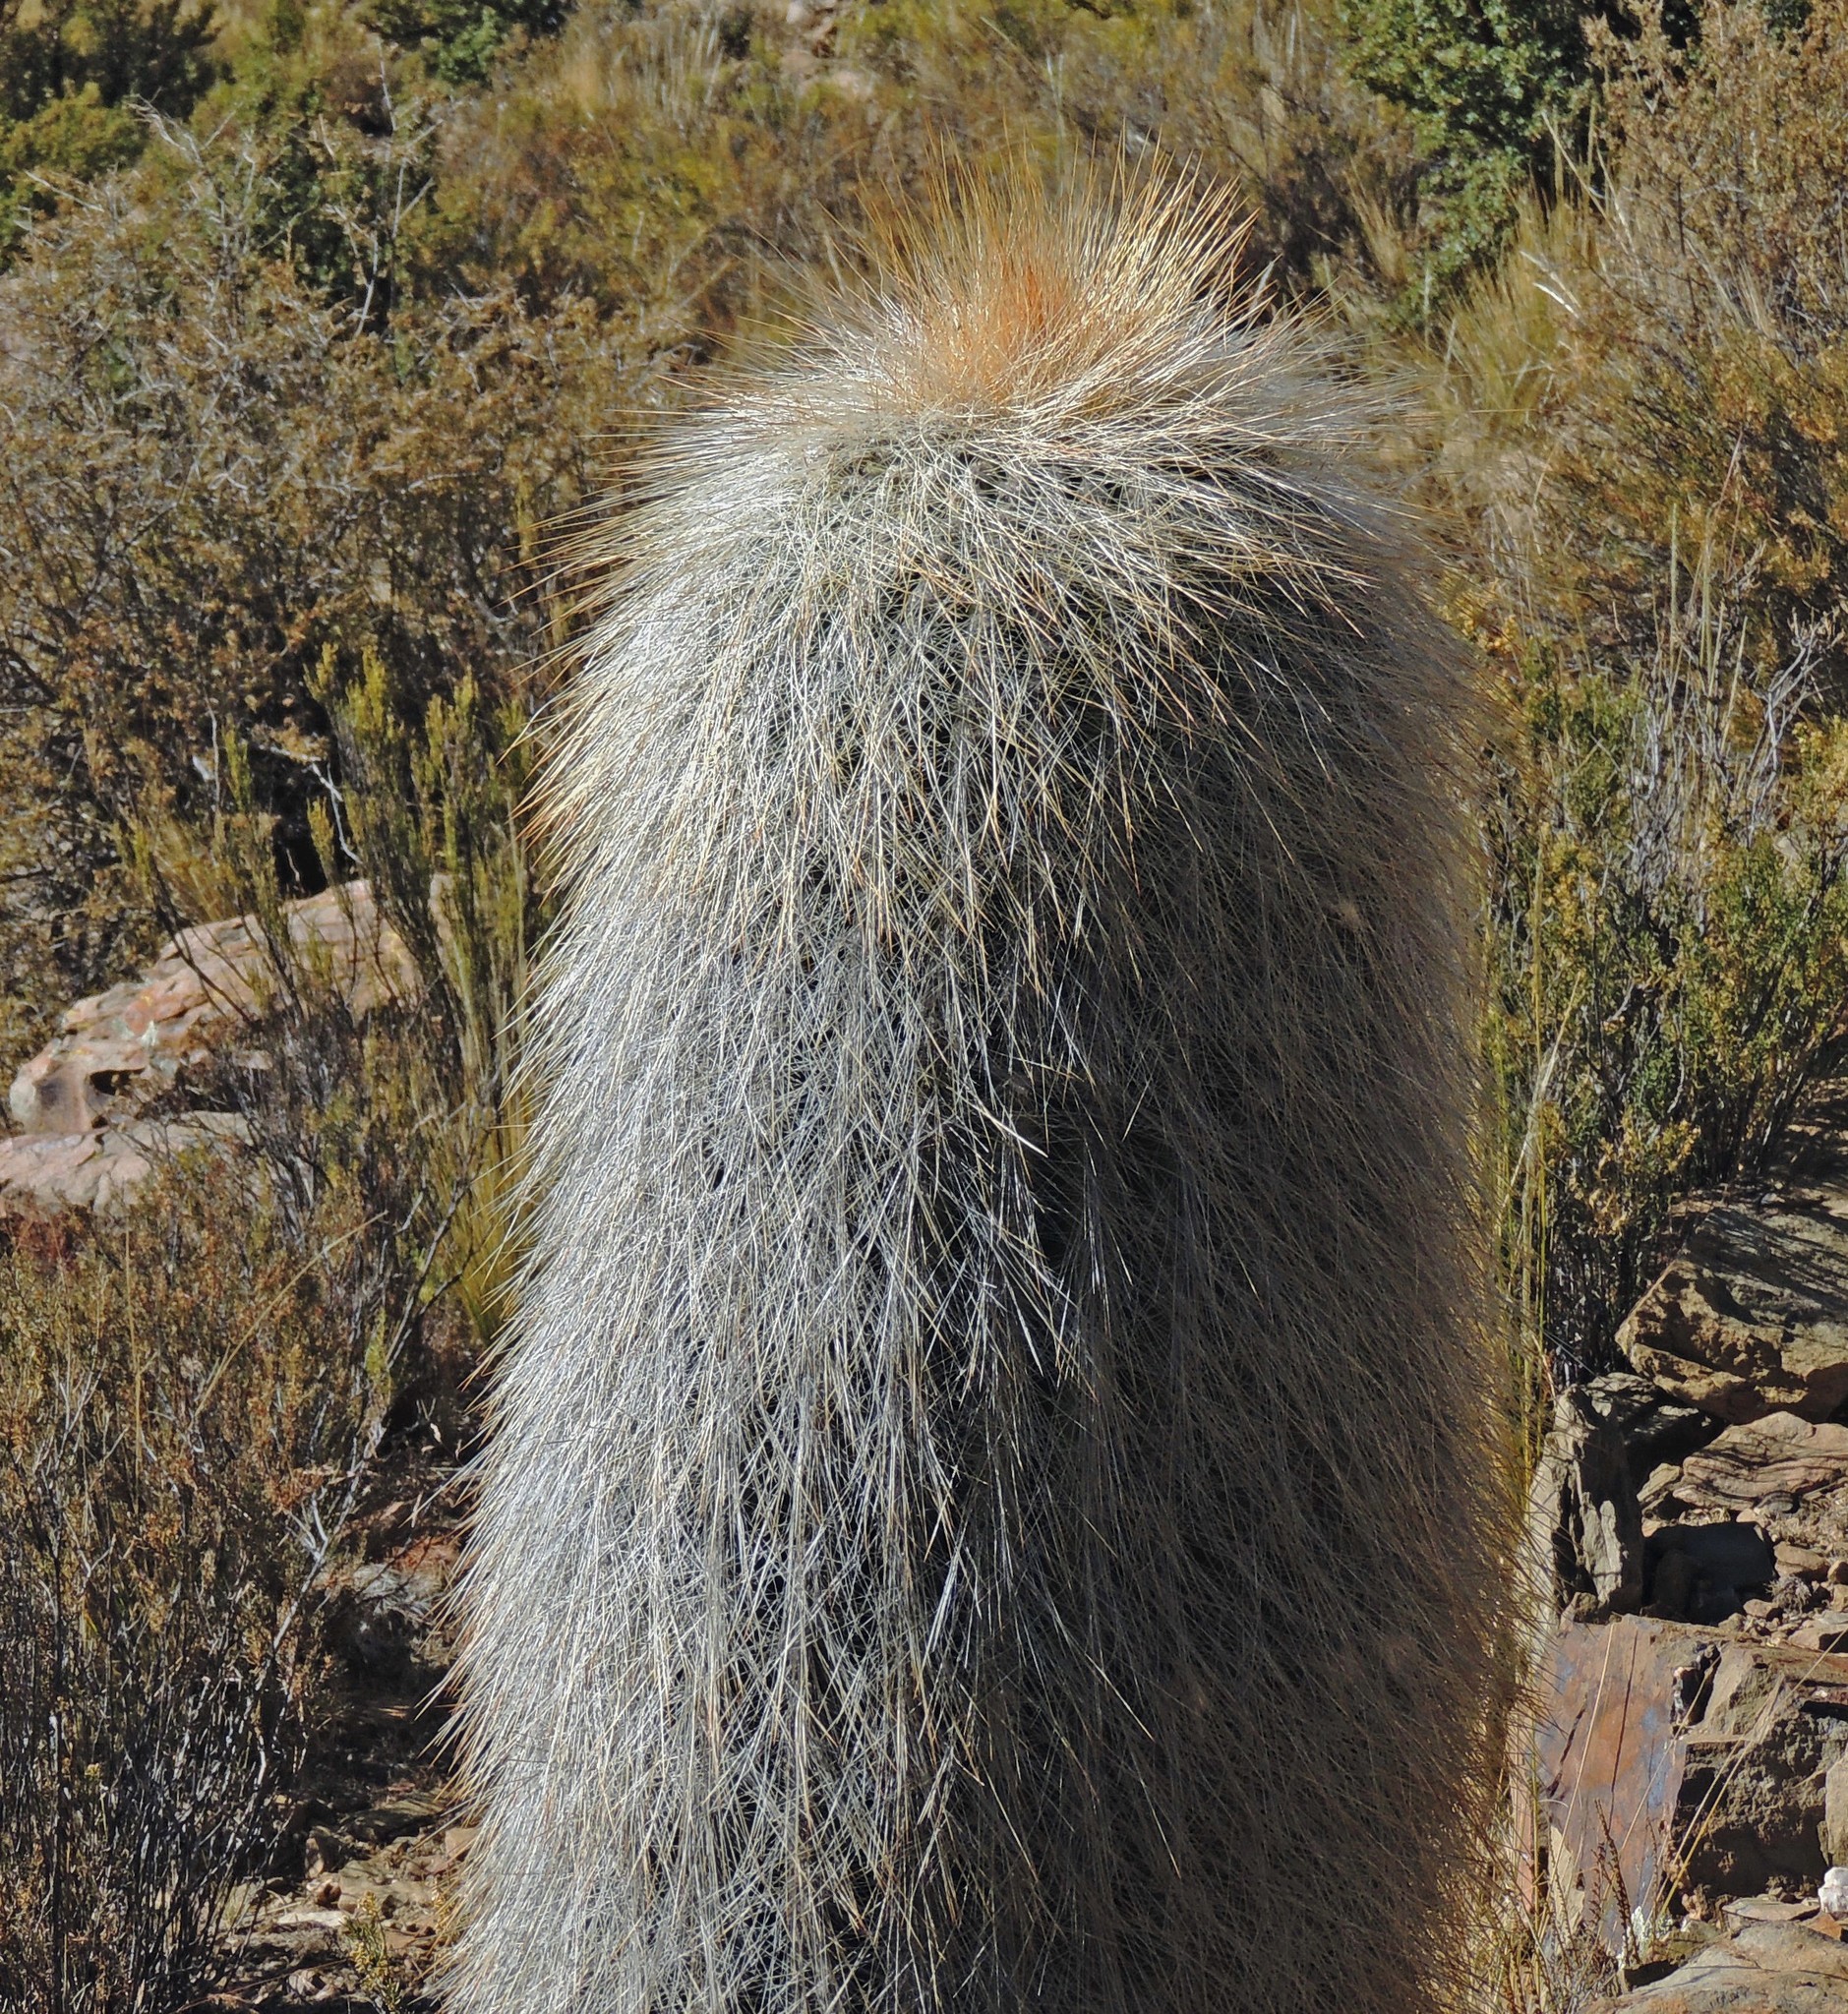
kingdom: Plantae
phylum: Tracheophyta
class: Magnoliopsida
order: Caryophyllales
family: Cactaceae
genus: Soehrensia
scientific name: Soehrensia tarijensis
